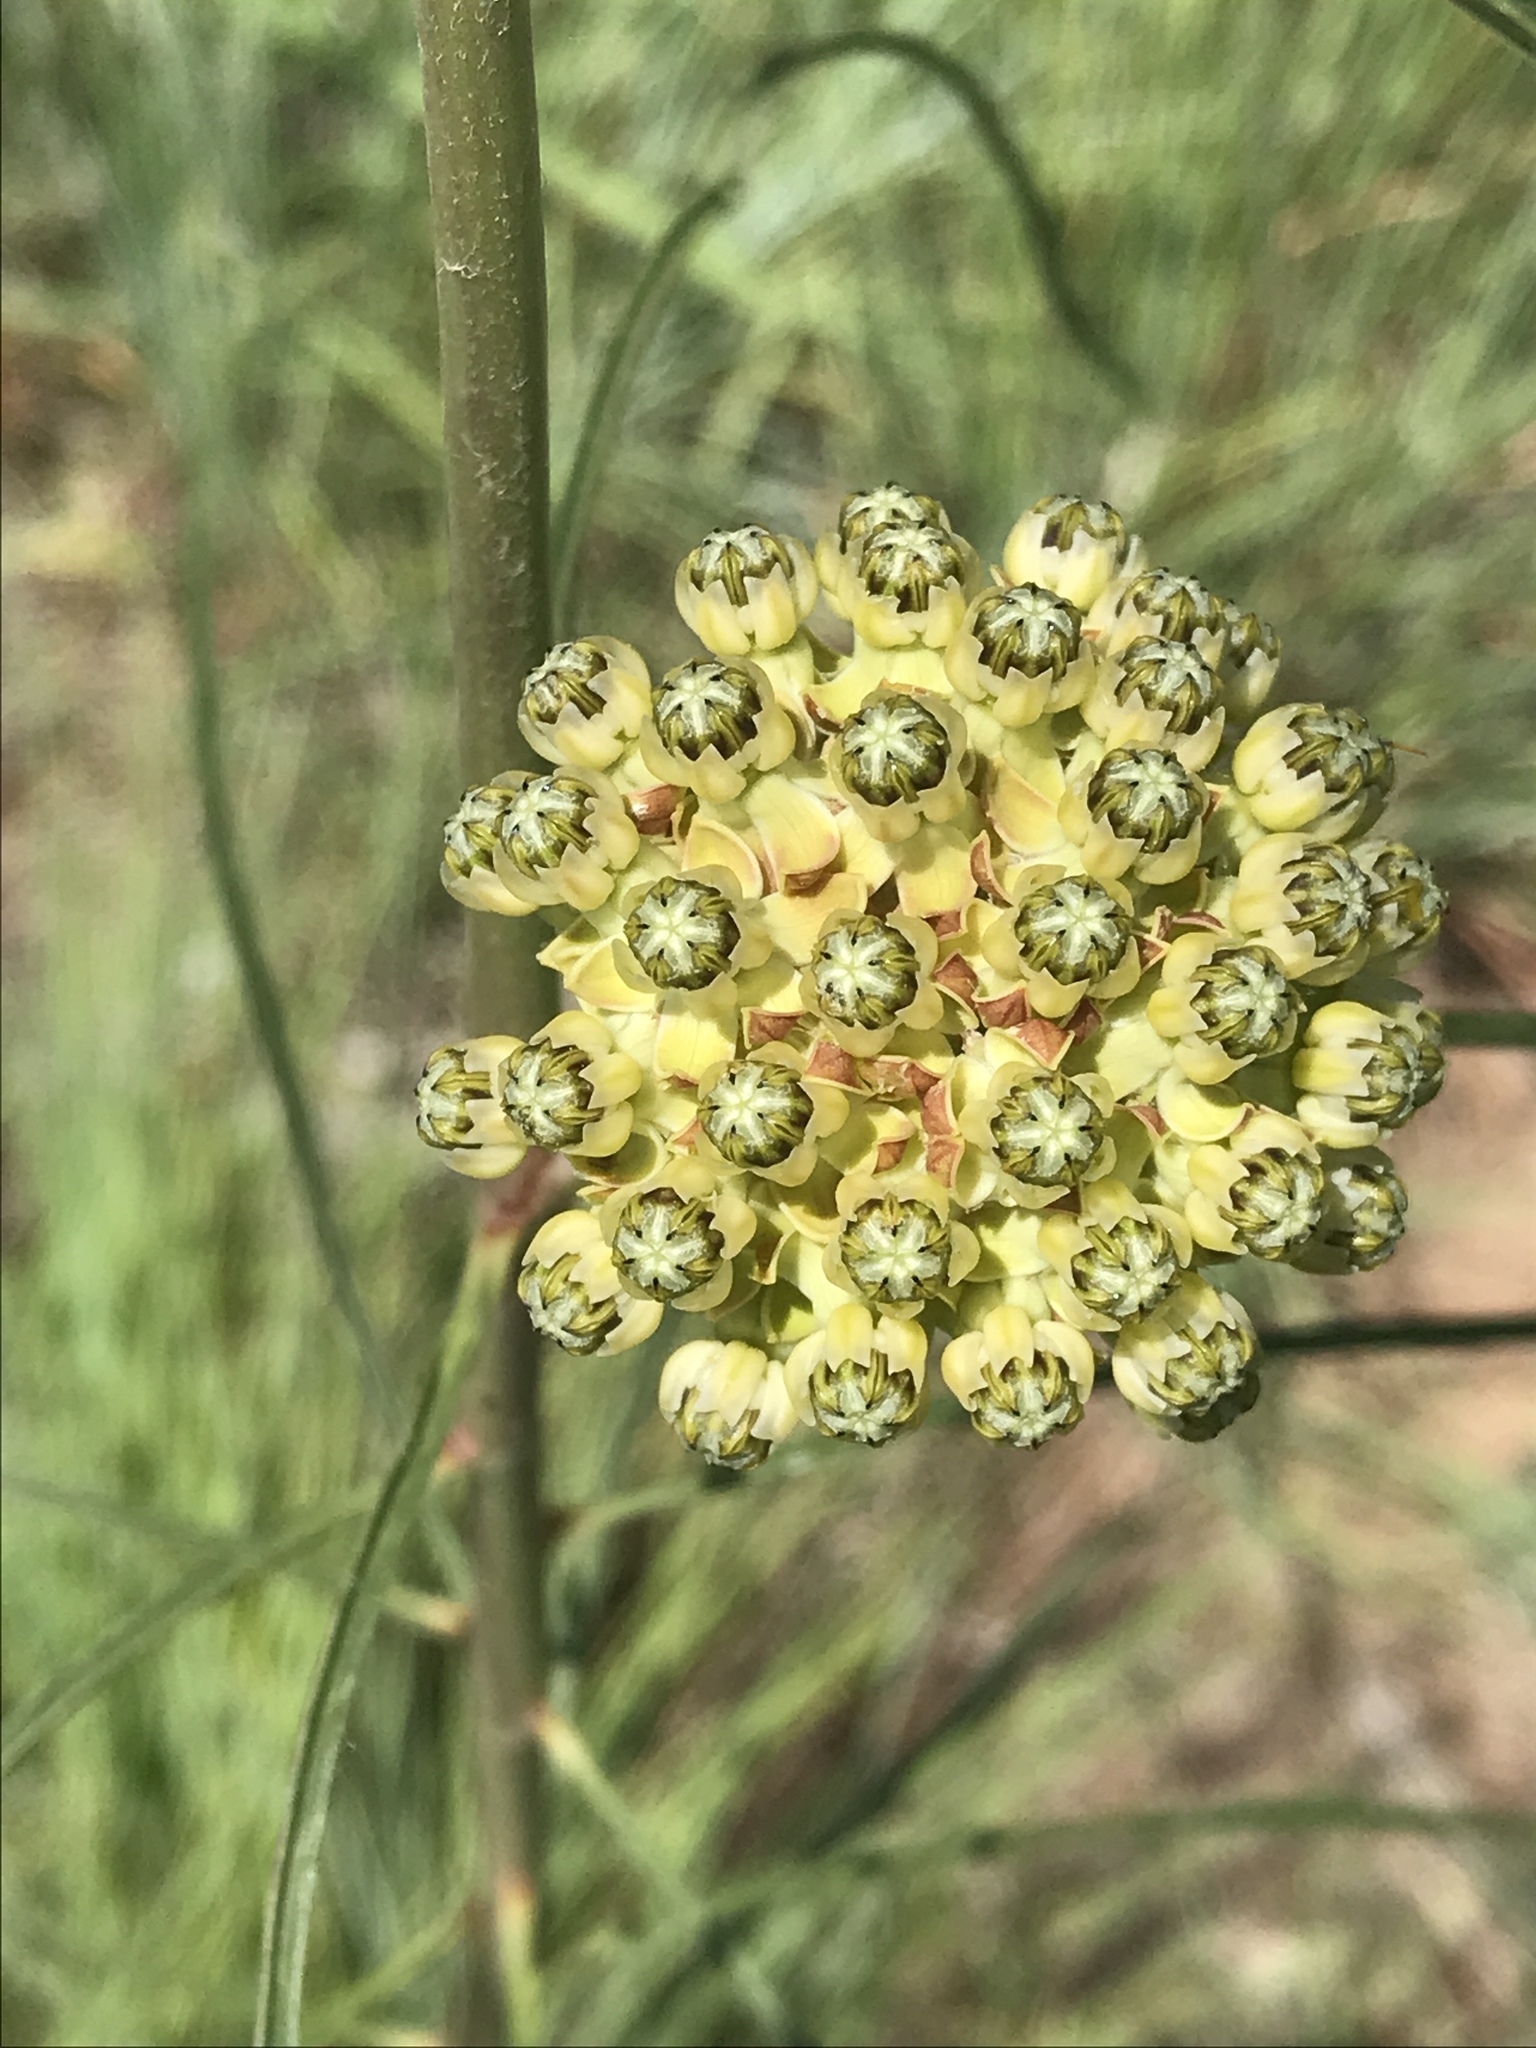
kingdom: Plantae
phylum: Tracheophyta
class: Magnoliopsida
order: Gentianales
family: Apocynaceae
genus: Asclepias
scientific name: Asclepias engelmanniana
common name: Engelmann's milkweed
